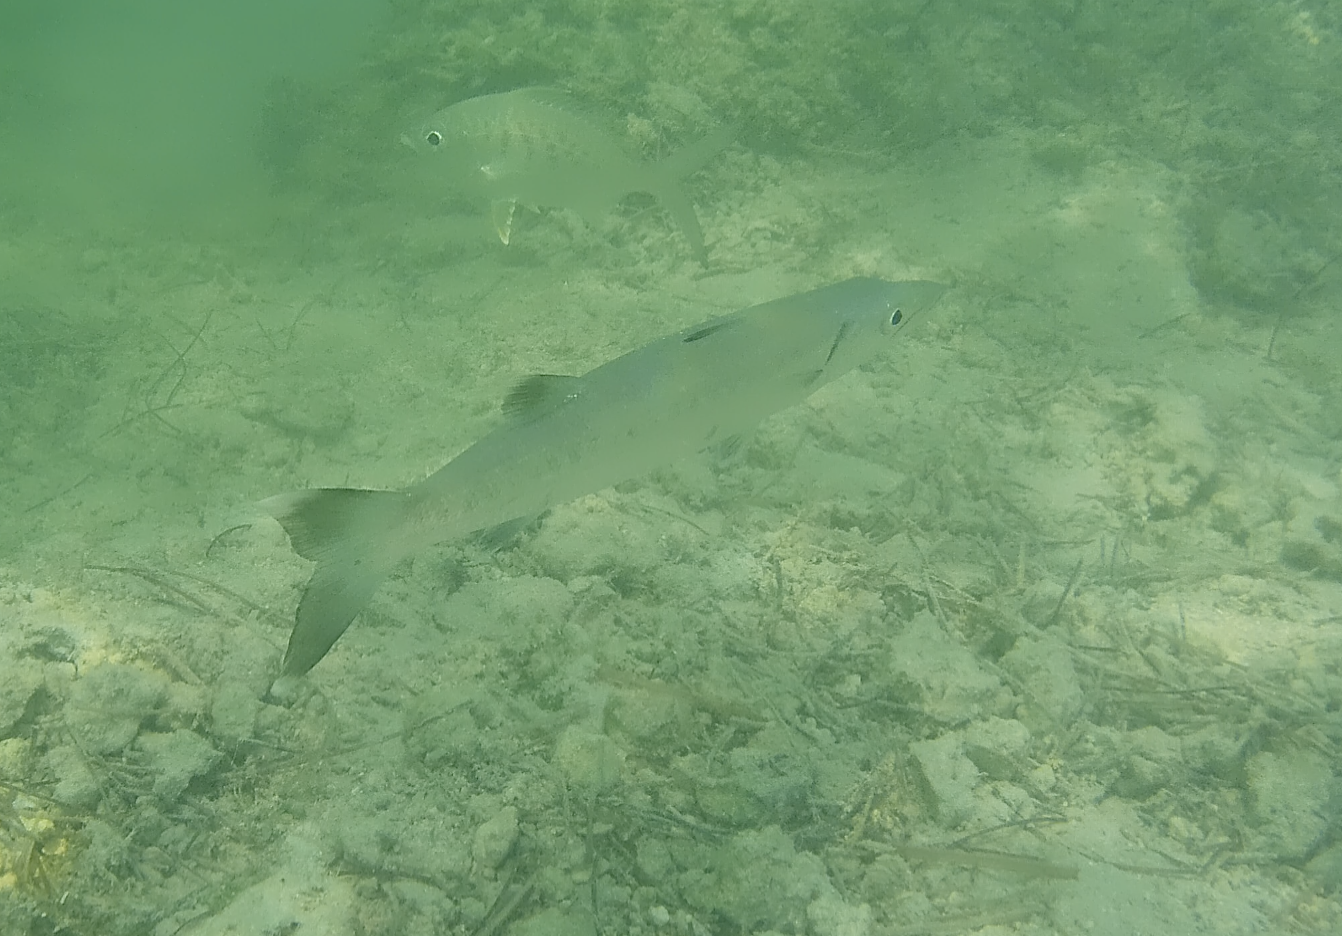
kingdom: Animalia
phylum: Chordata
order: Perciformes
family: Sphyraenidae
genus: Sphyraena
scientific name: Sphyraena barracuda
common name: Great barracuda
